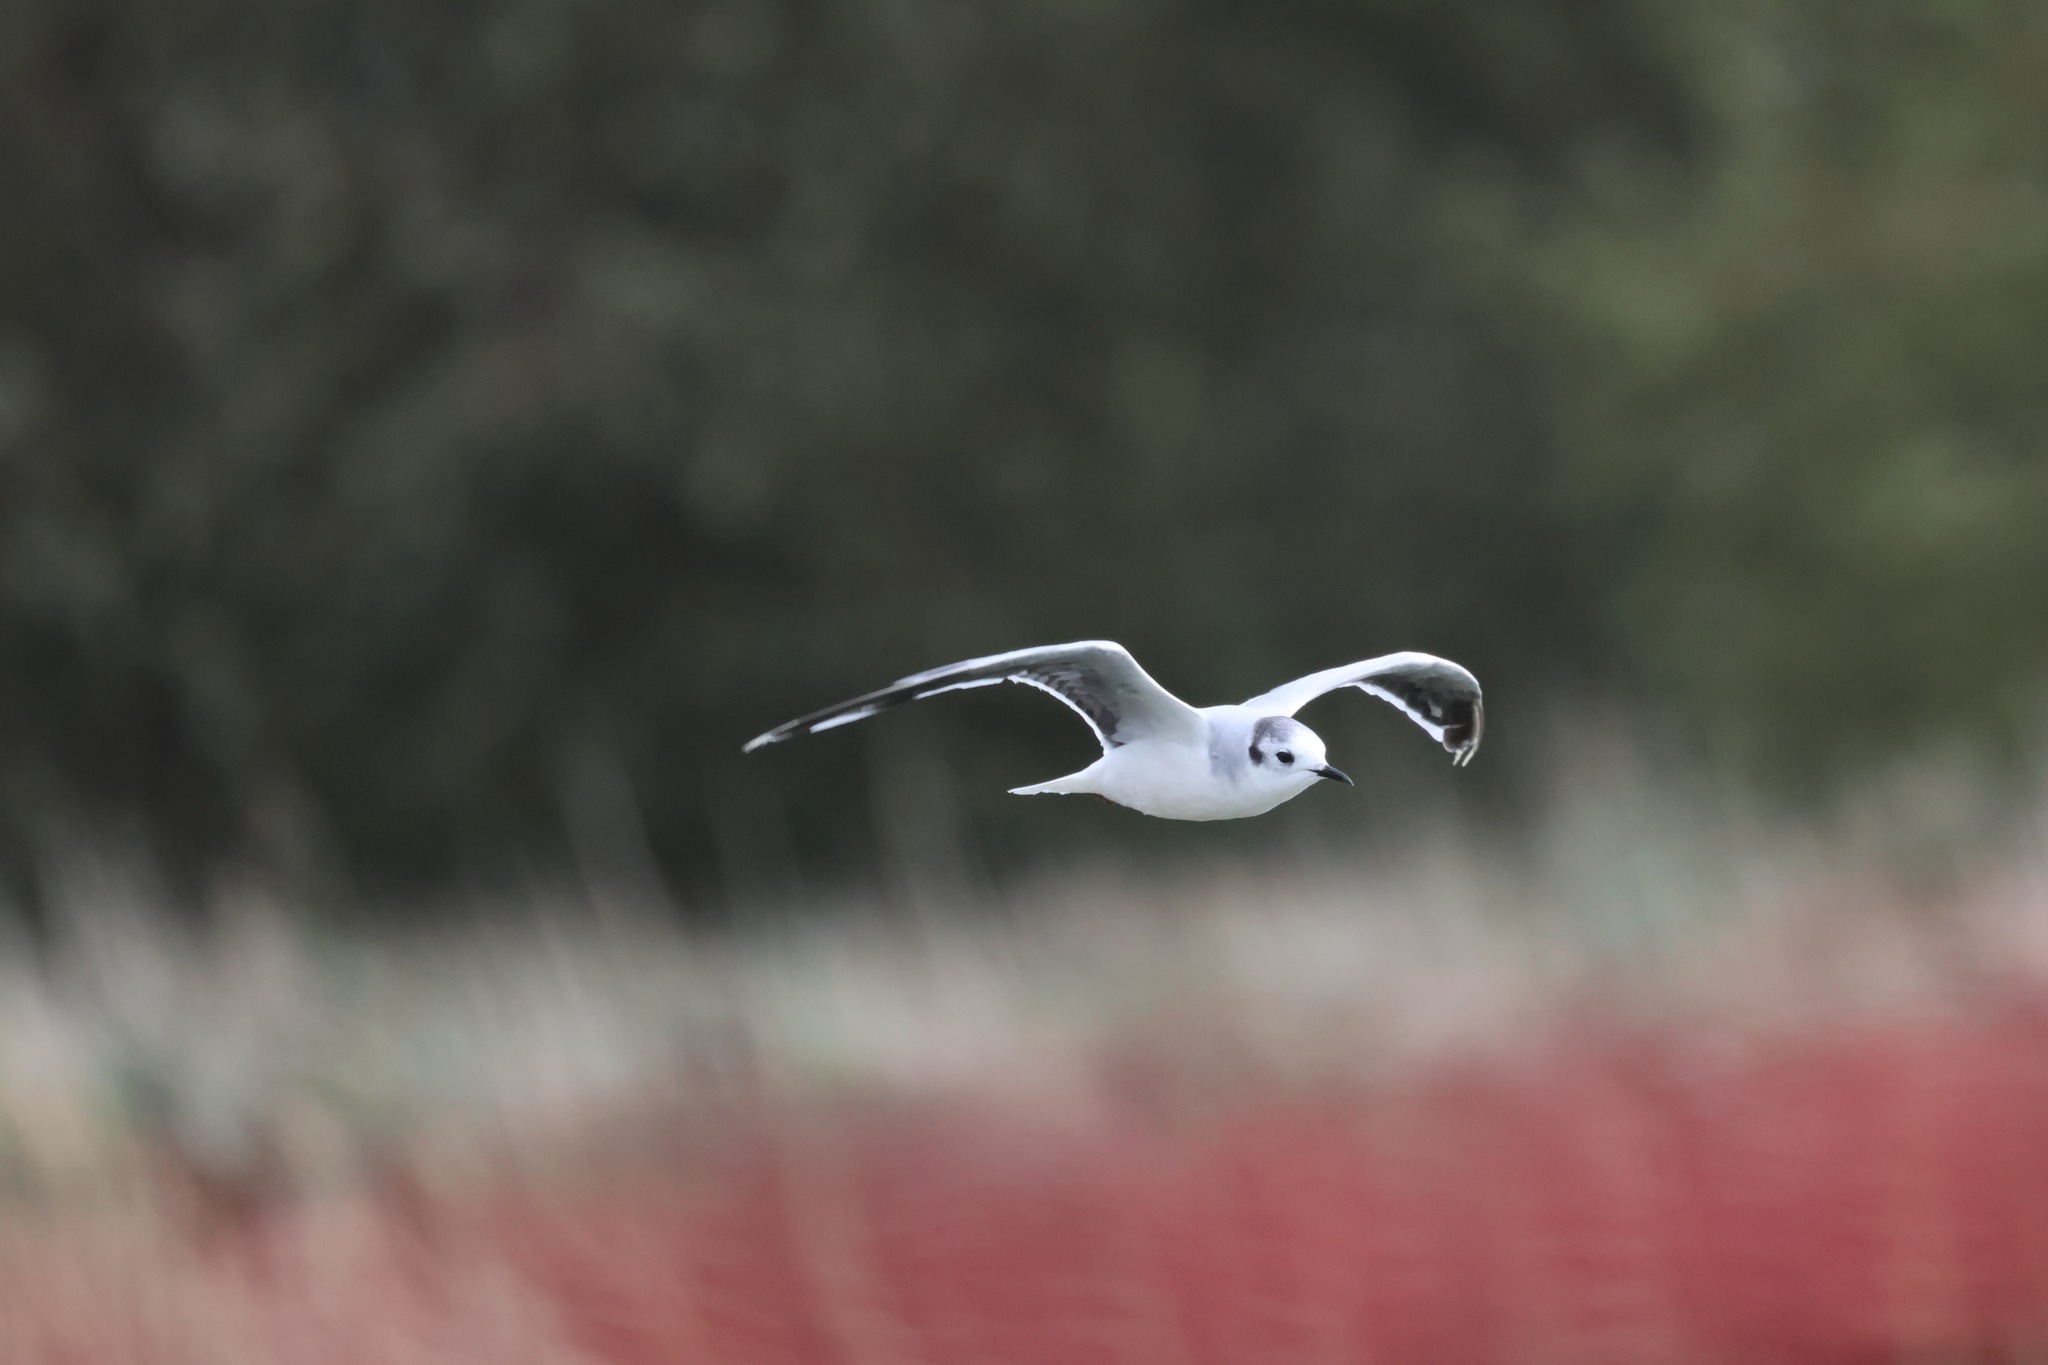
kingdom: Animalia
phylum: Chordata
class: Aves
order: Charadriiformes
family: Laridae
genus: Hydrocoloeus
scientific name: Hydrocoloeus minutus
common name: Little gull
